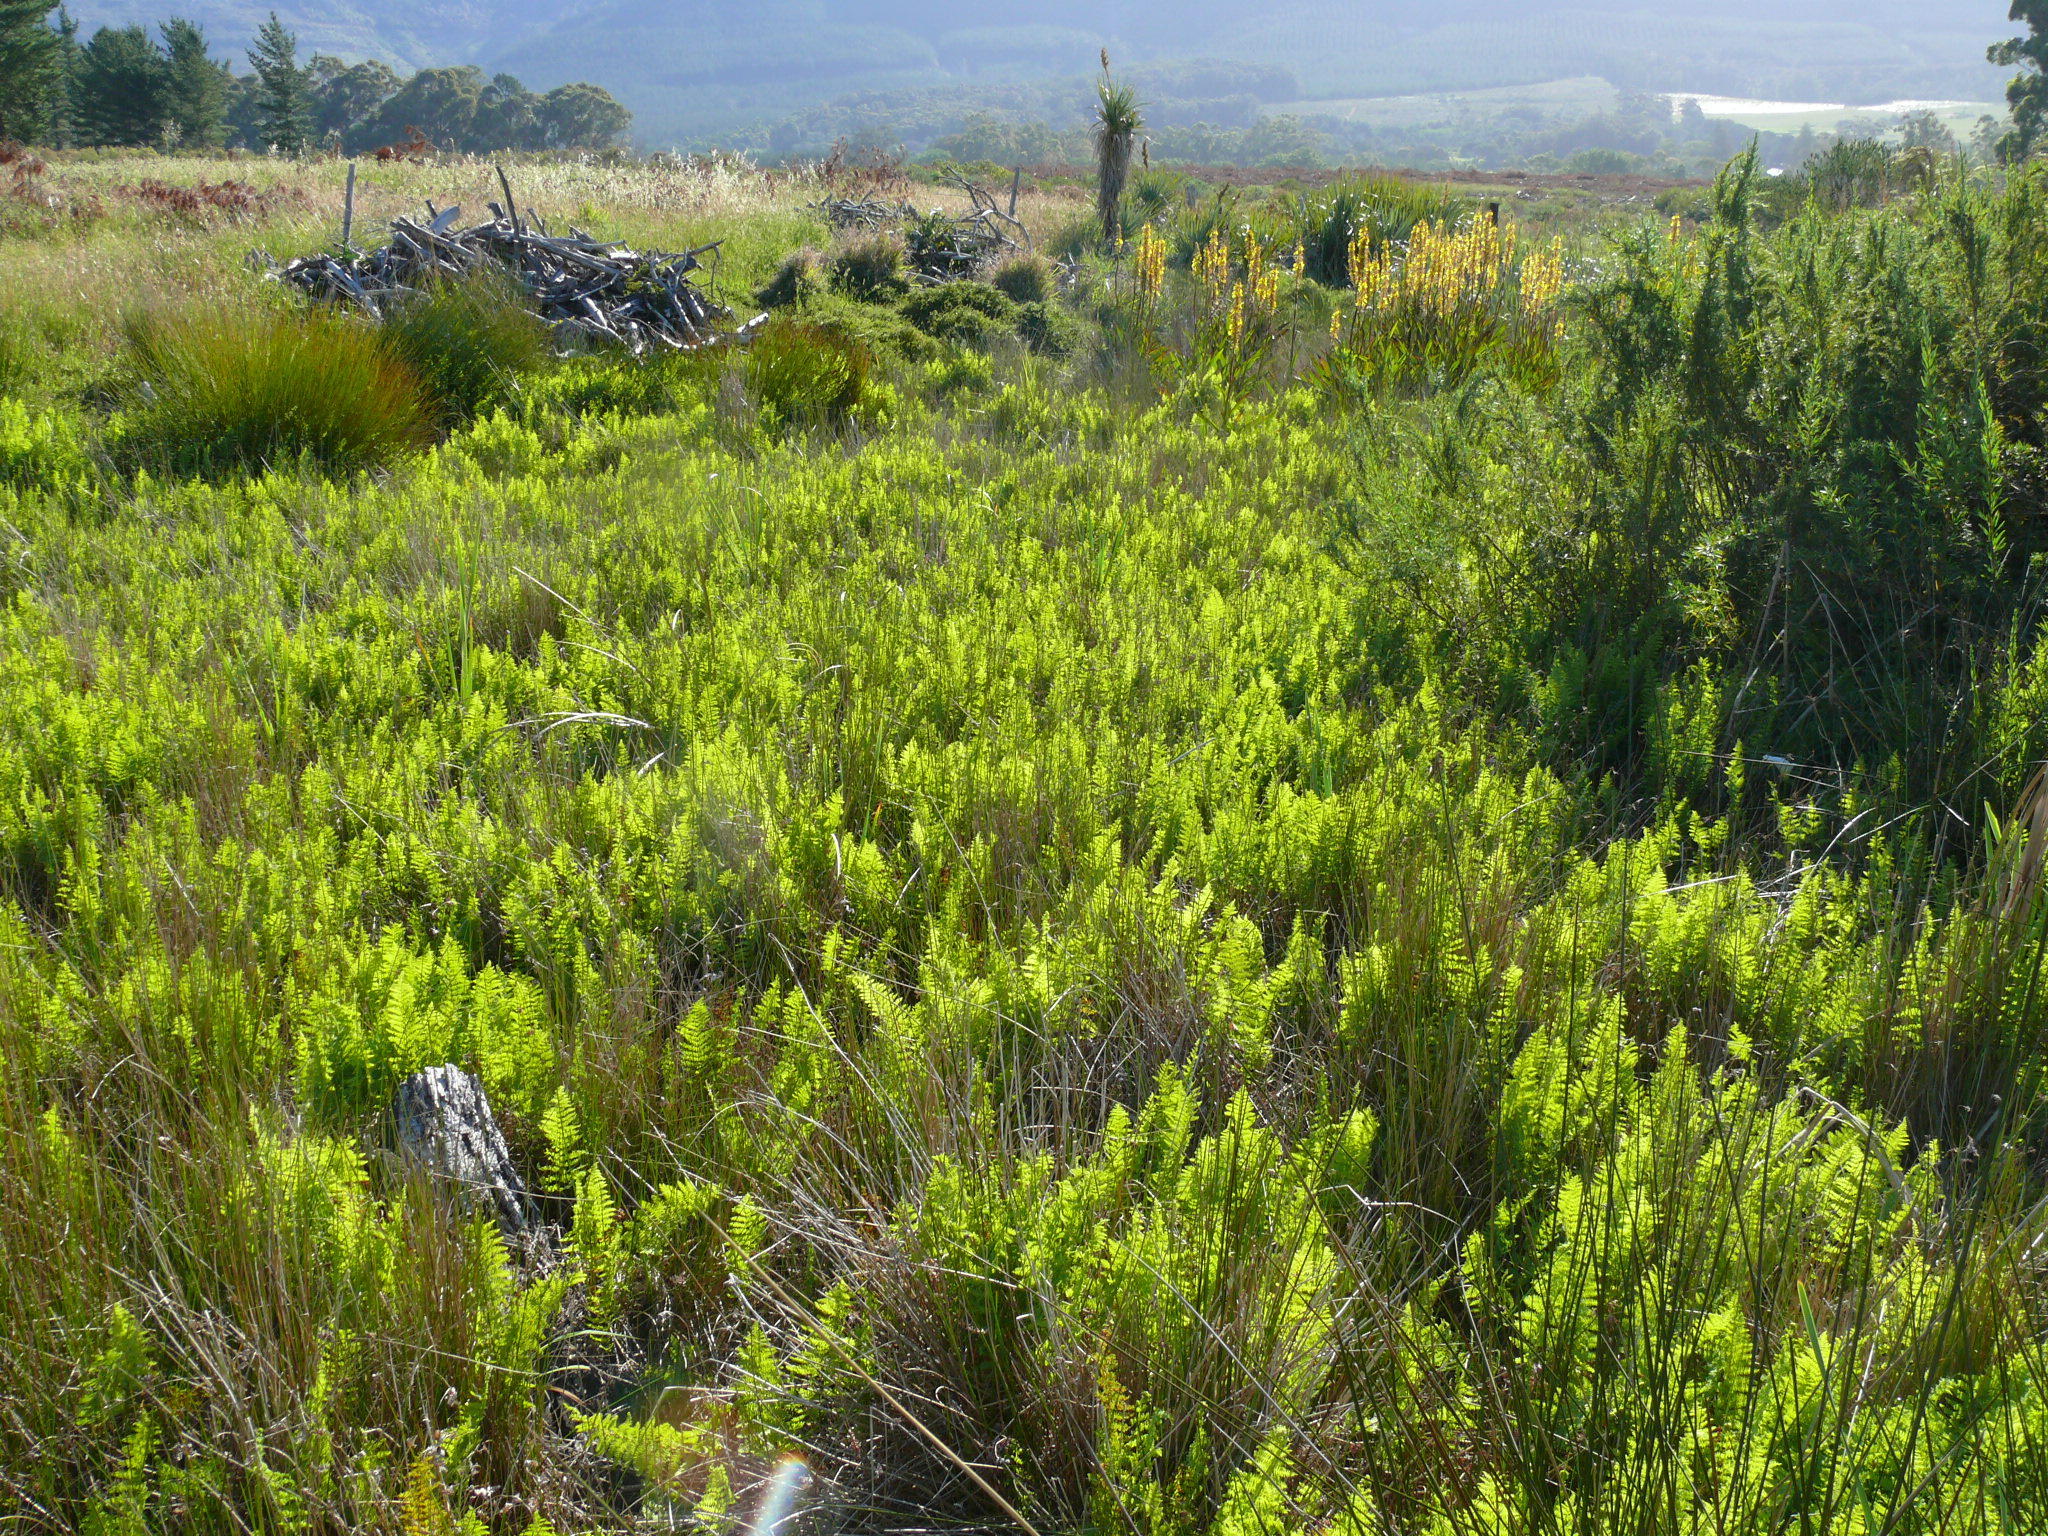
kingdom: Plantae
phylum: Tracheophyta
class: Polypodiopsida
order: Polypodiales
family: Thelypteridaceae
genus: Thelypteris
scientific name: Thelypteris confluens
